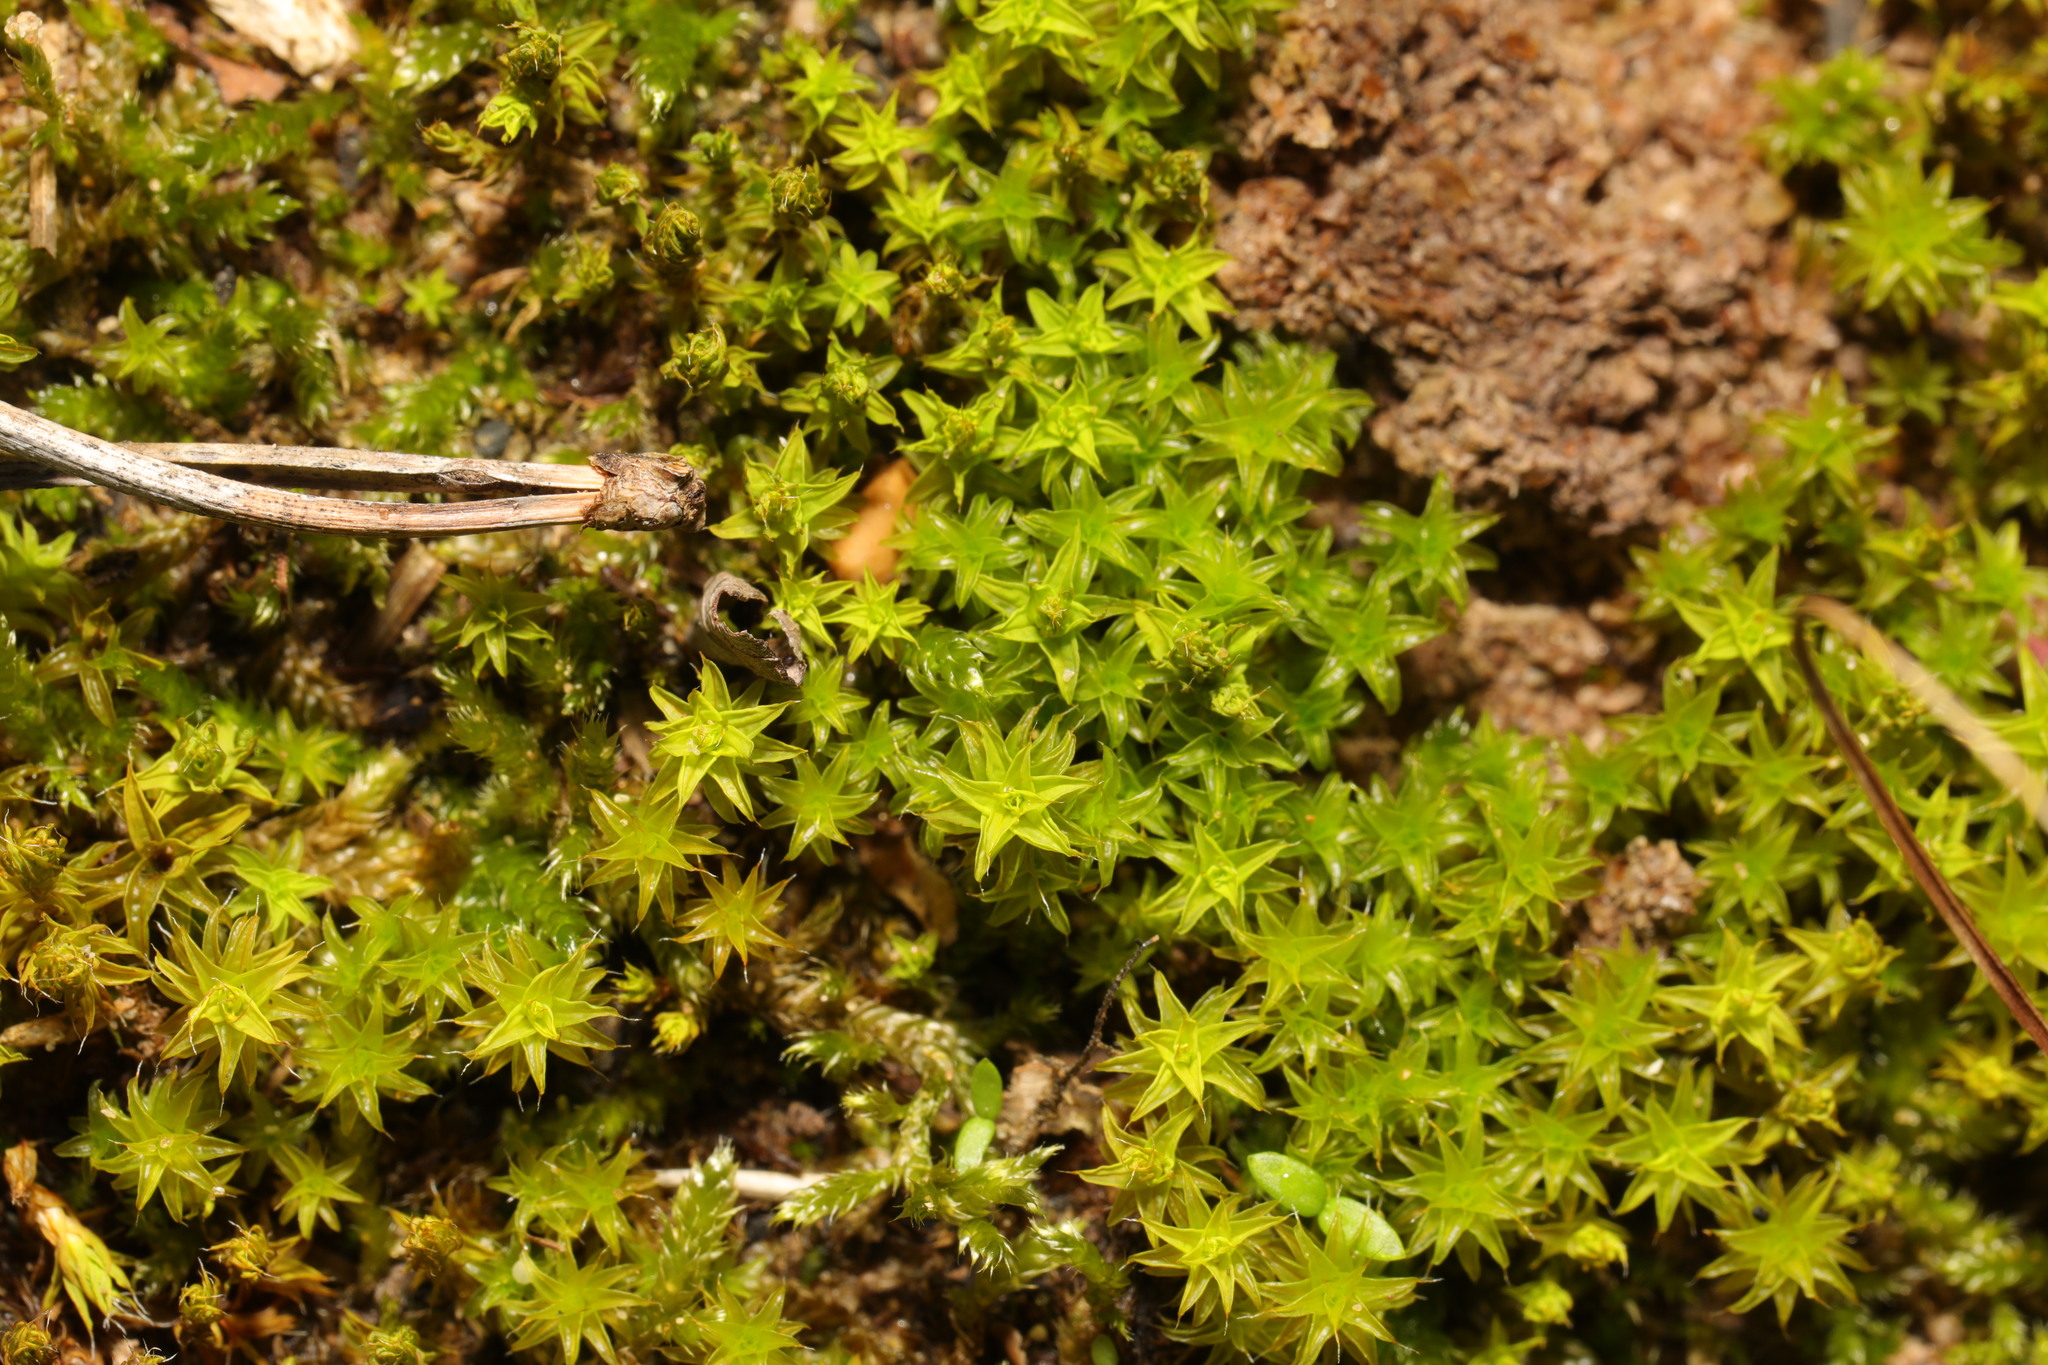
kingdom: Plantae
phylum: Bryophyta
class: Bryopsida
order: Pottiales
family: Pottiaceae
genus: Syntrichia
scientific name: Syntrichia ruralis
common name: Sidewalk screw moss
